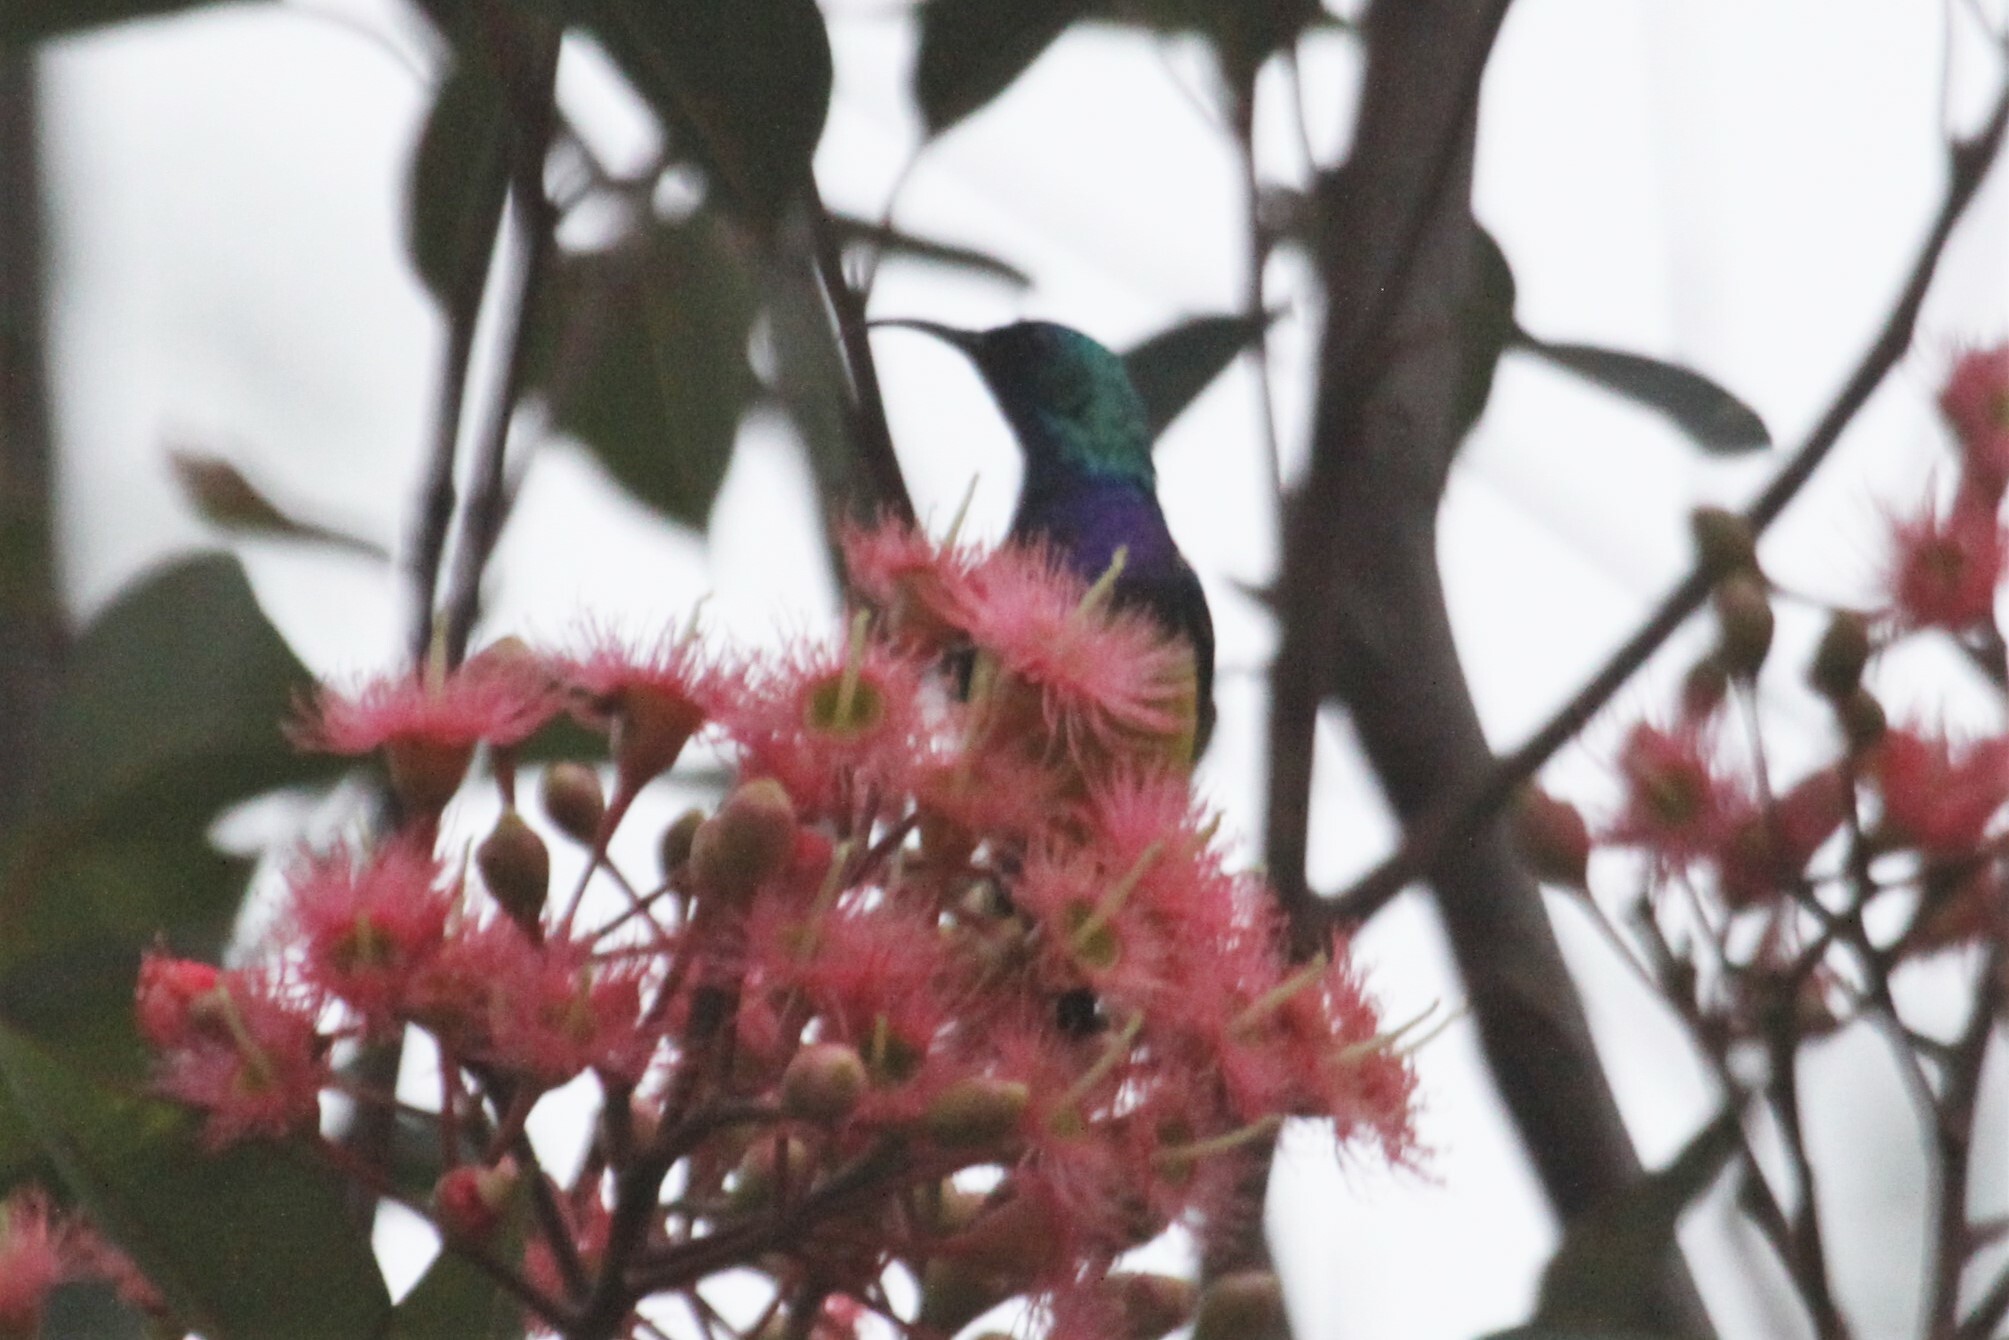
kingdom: Animalia
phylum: Chordata
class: Aves
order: Passeriformes
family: Nectariniidae
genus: Cinnyris
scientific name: Cinnyris venustus
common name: Variable sunbird
